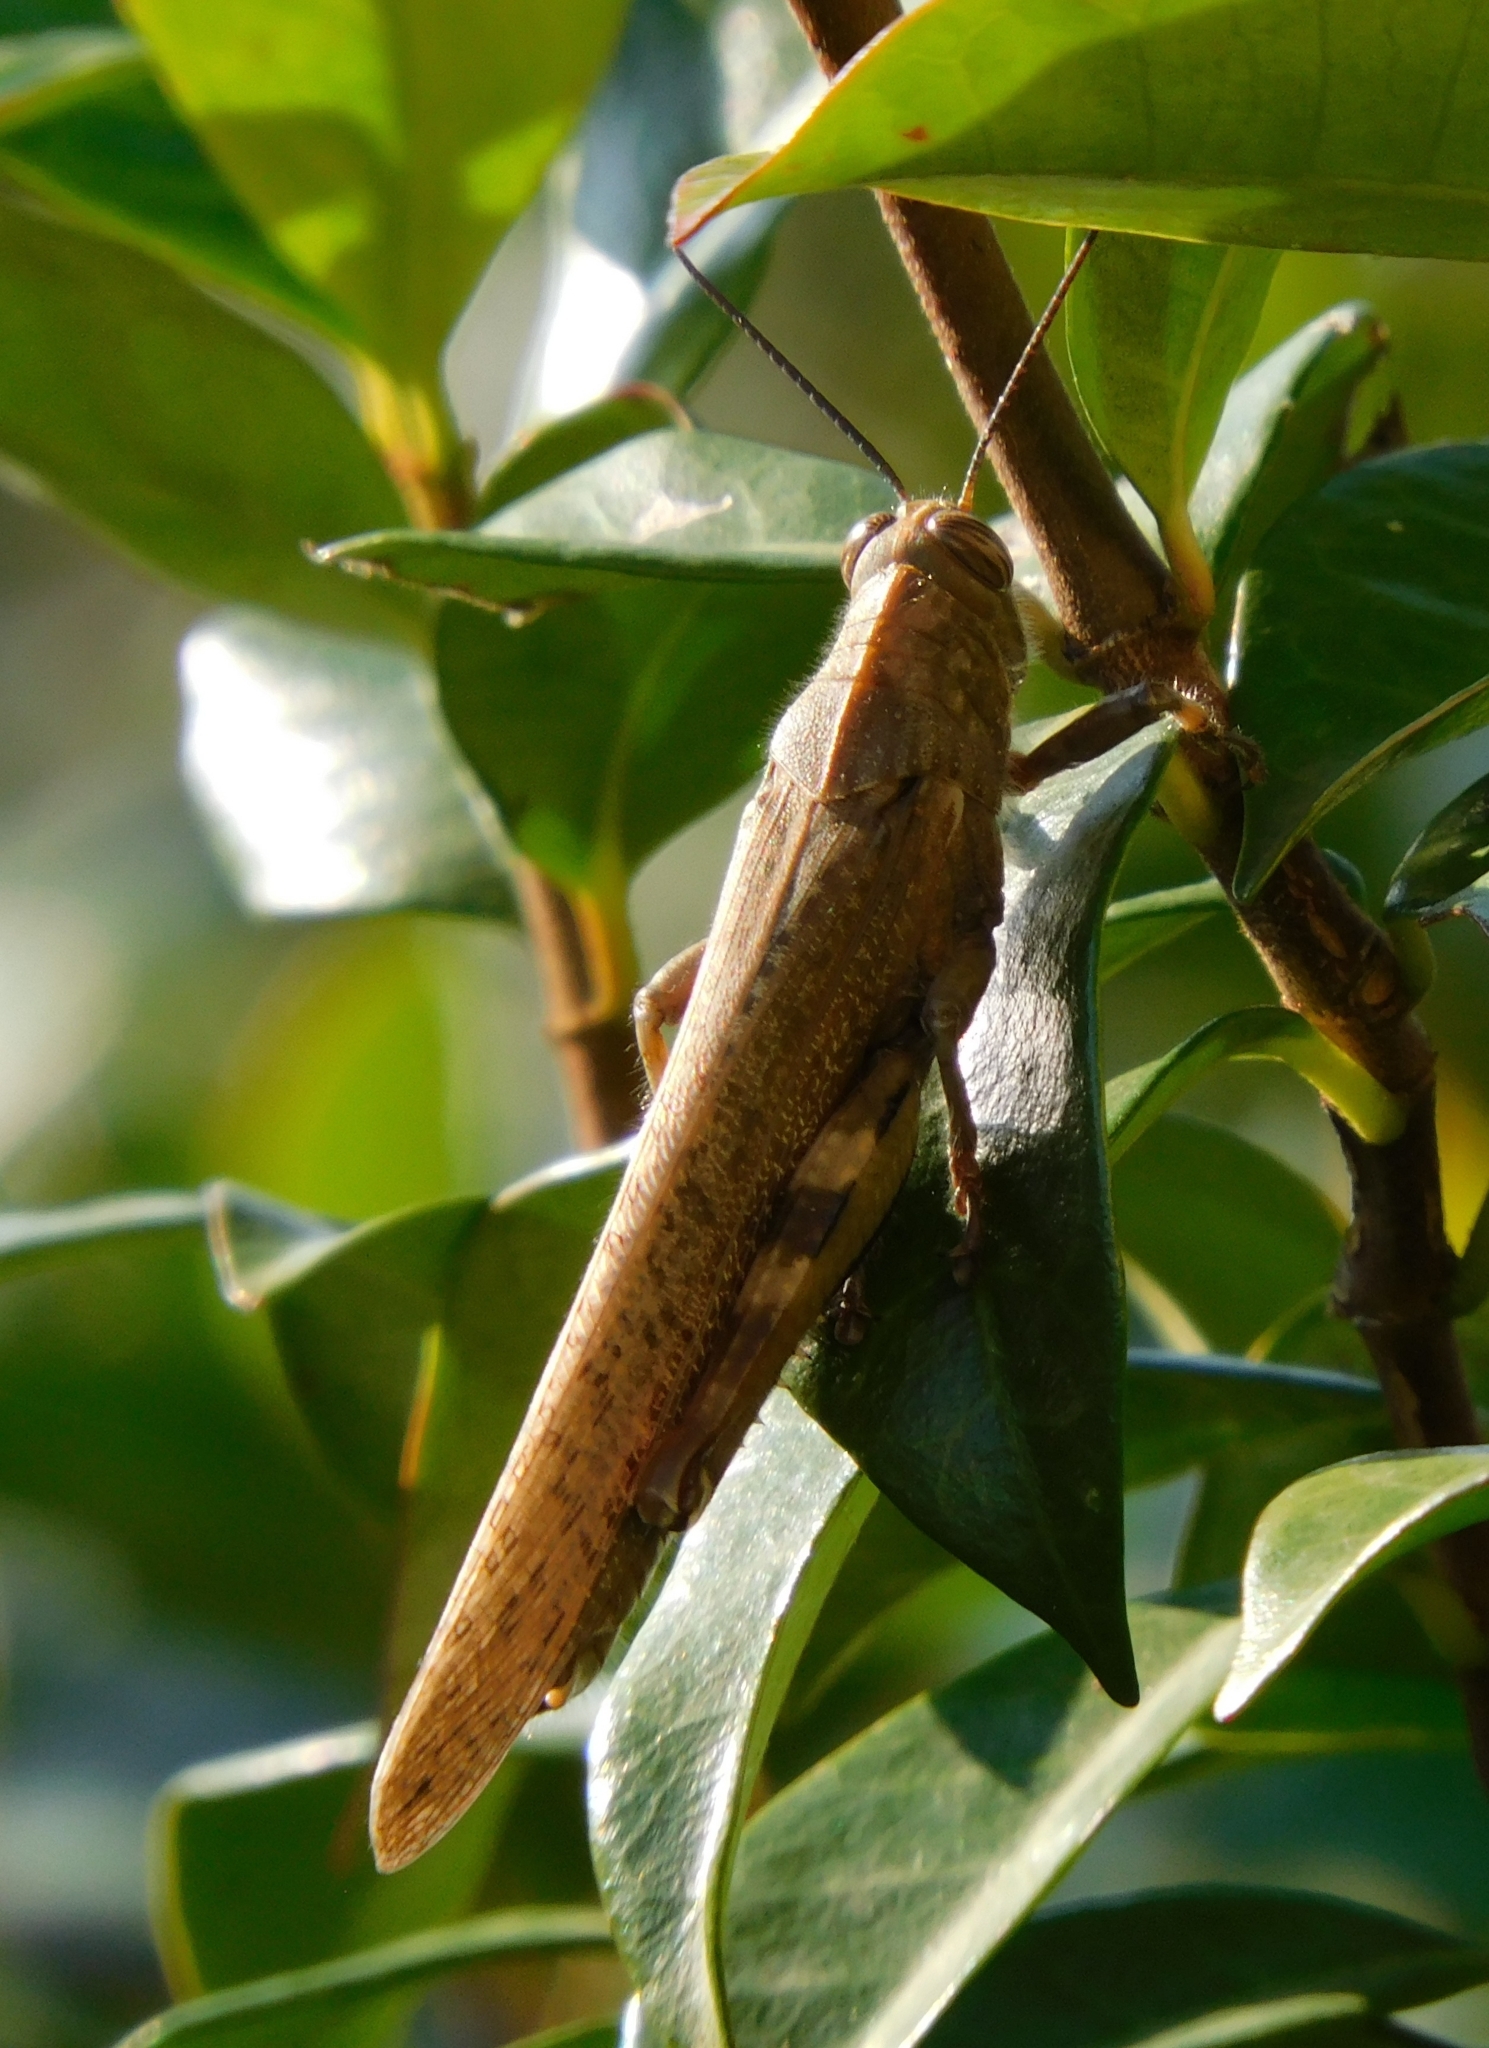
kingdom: Animalia
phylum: Arthropoda
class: Insecta
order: Orthoptera
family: Acrididae
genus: Anacridium
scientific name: Anacridium aegyptium
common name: Egyptian grasshopper
